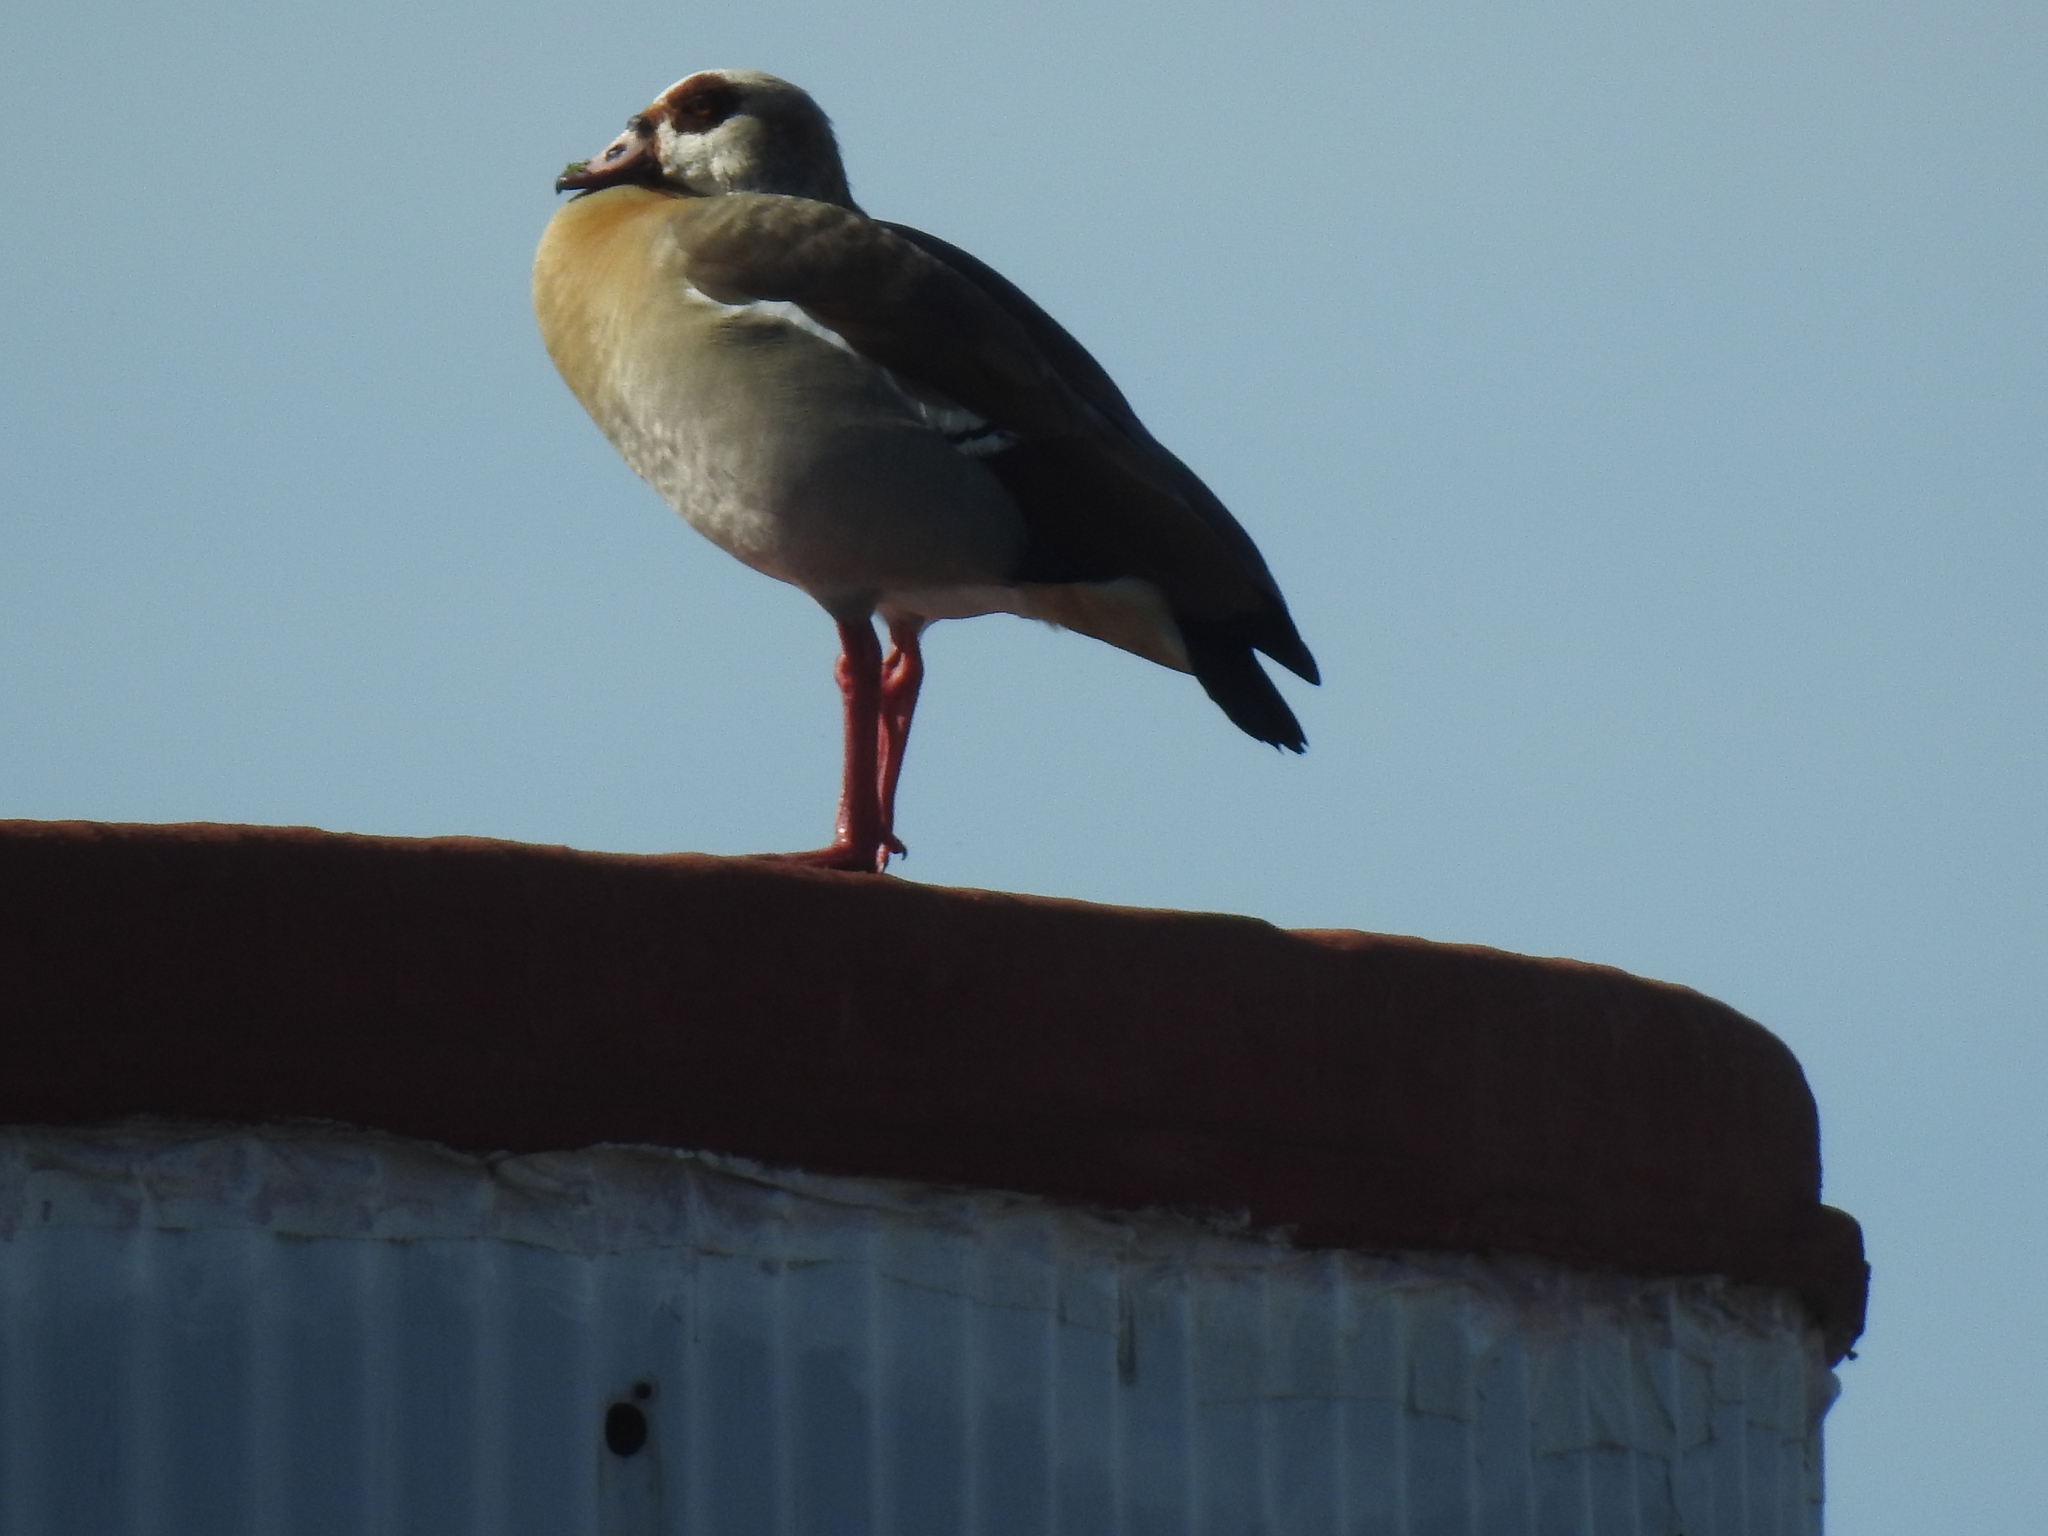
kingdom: Animalia
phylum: Chordata
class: Aves
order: Anseriformes
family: Anatidae
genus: Alopochen
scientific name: Alopochen aegyptiaca
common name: Egyptian goose
